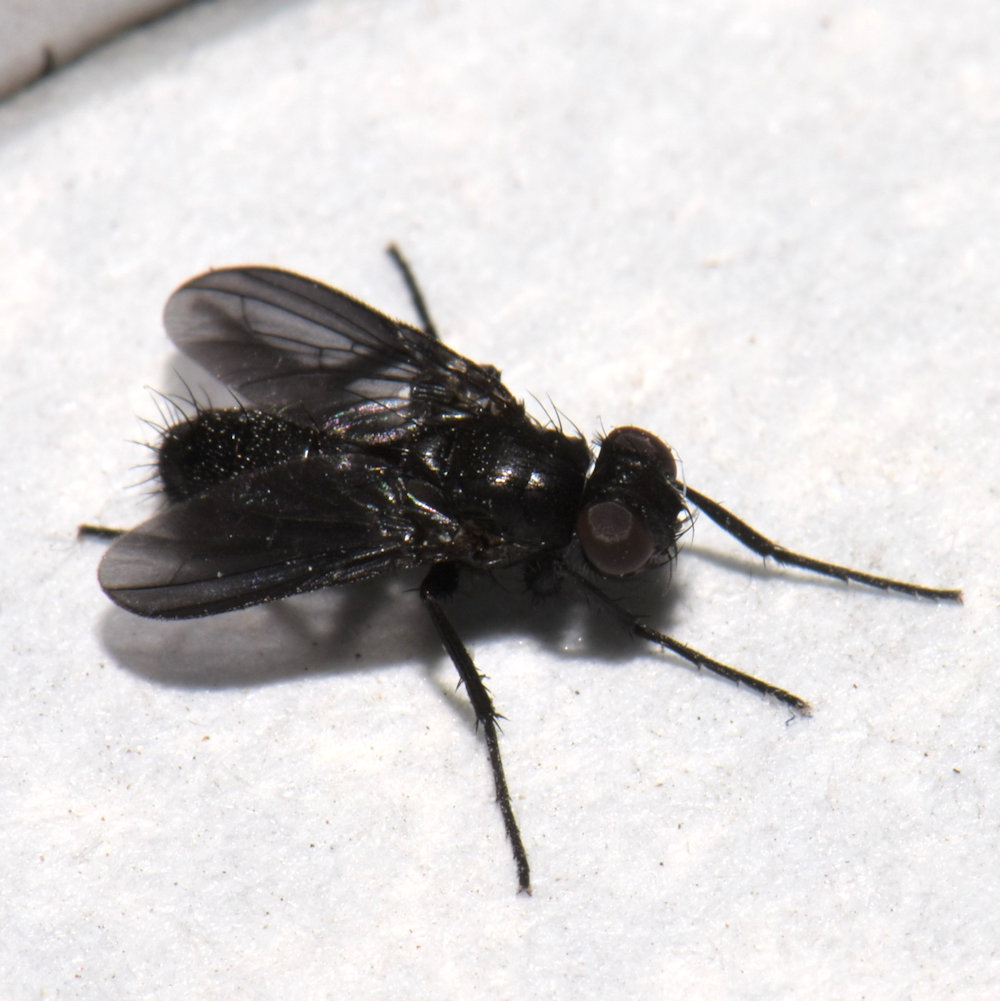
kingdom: Animalia
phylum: Arthropoda
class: Insecta
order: Diptera
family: Calliphoridae
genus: Melanophora
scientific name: Melanophora roralis
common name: Smoky-winged woodlouse-fly
